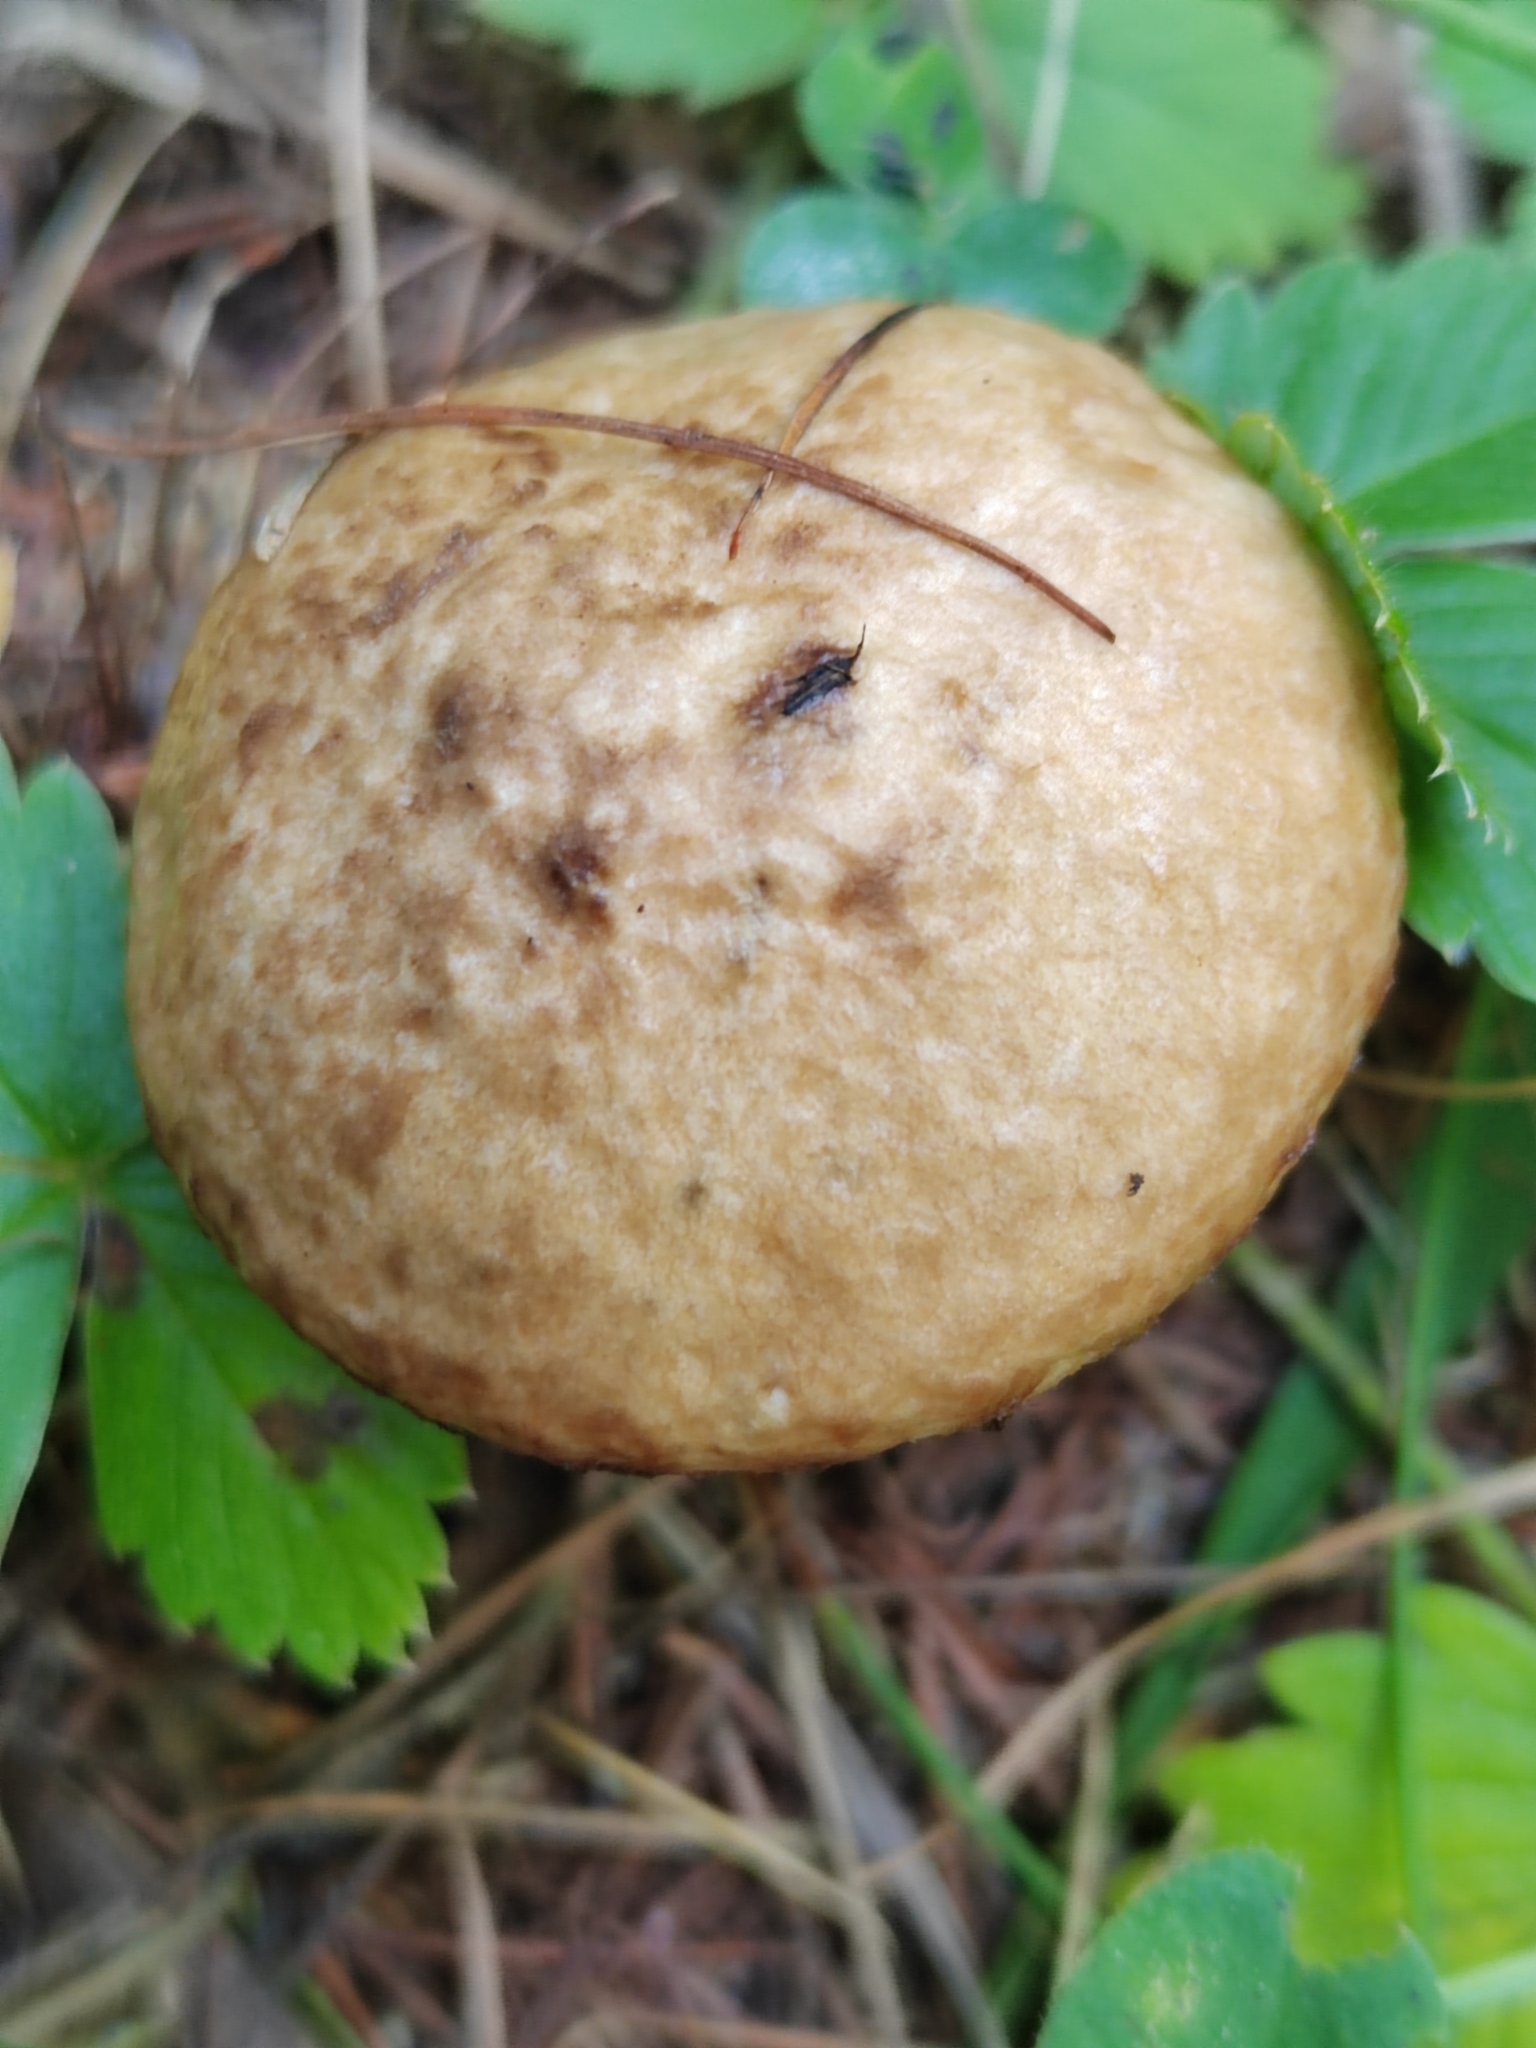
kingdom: Fungi
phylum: Basidiomycota
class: Agaricomycetes
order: Boletales
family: Suillaceae
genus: Suillus
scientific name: Suillus viscidus
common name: Sticky bolete
